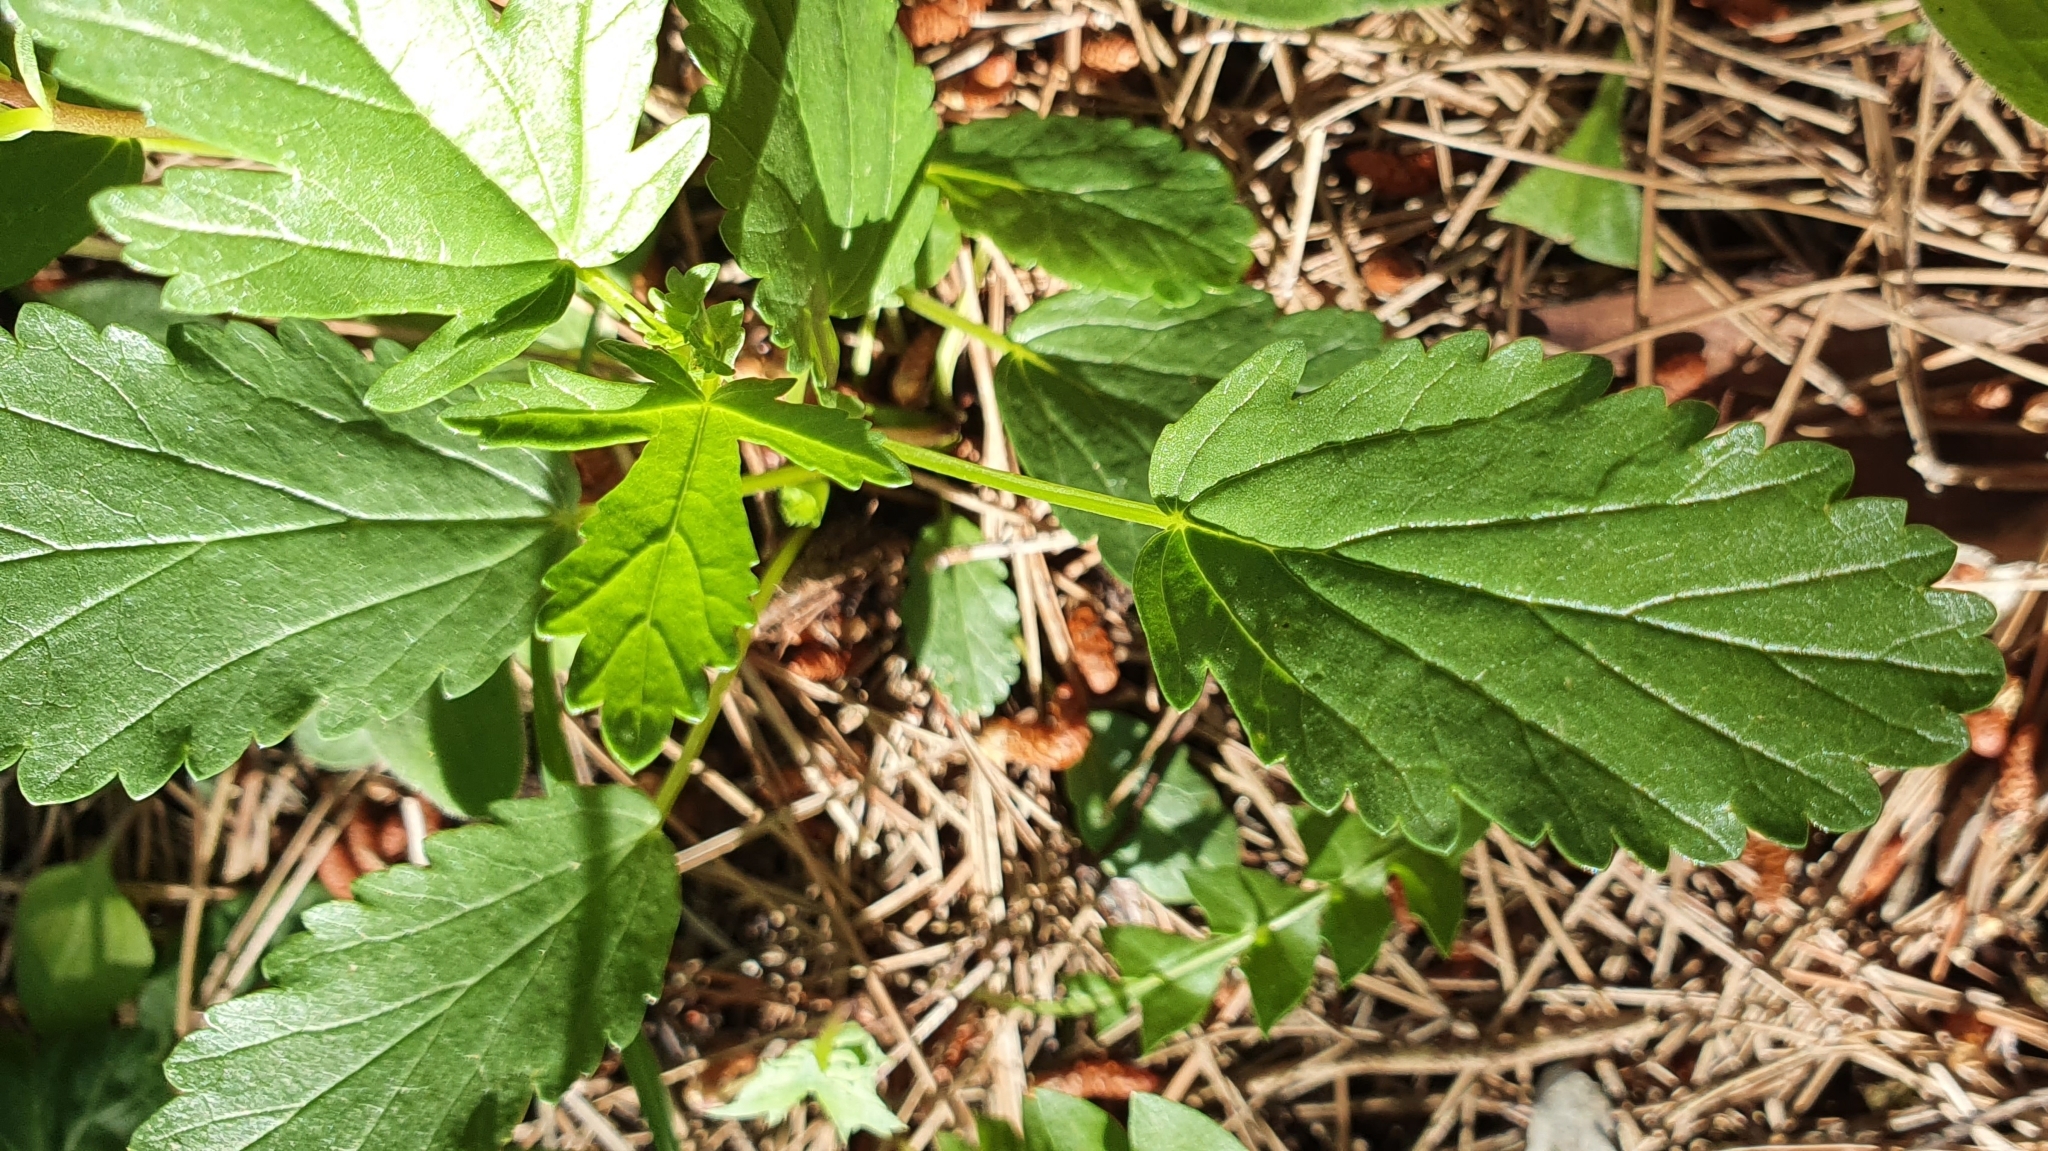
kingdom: Plantae
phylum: Tracheophyta
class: Magnoliopsida
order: Malvales
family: Malvaceae
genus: Malope
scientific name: Malope malacoides
